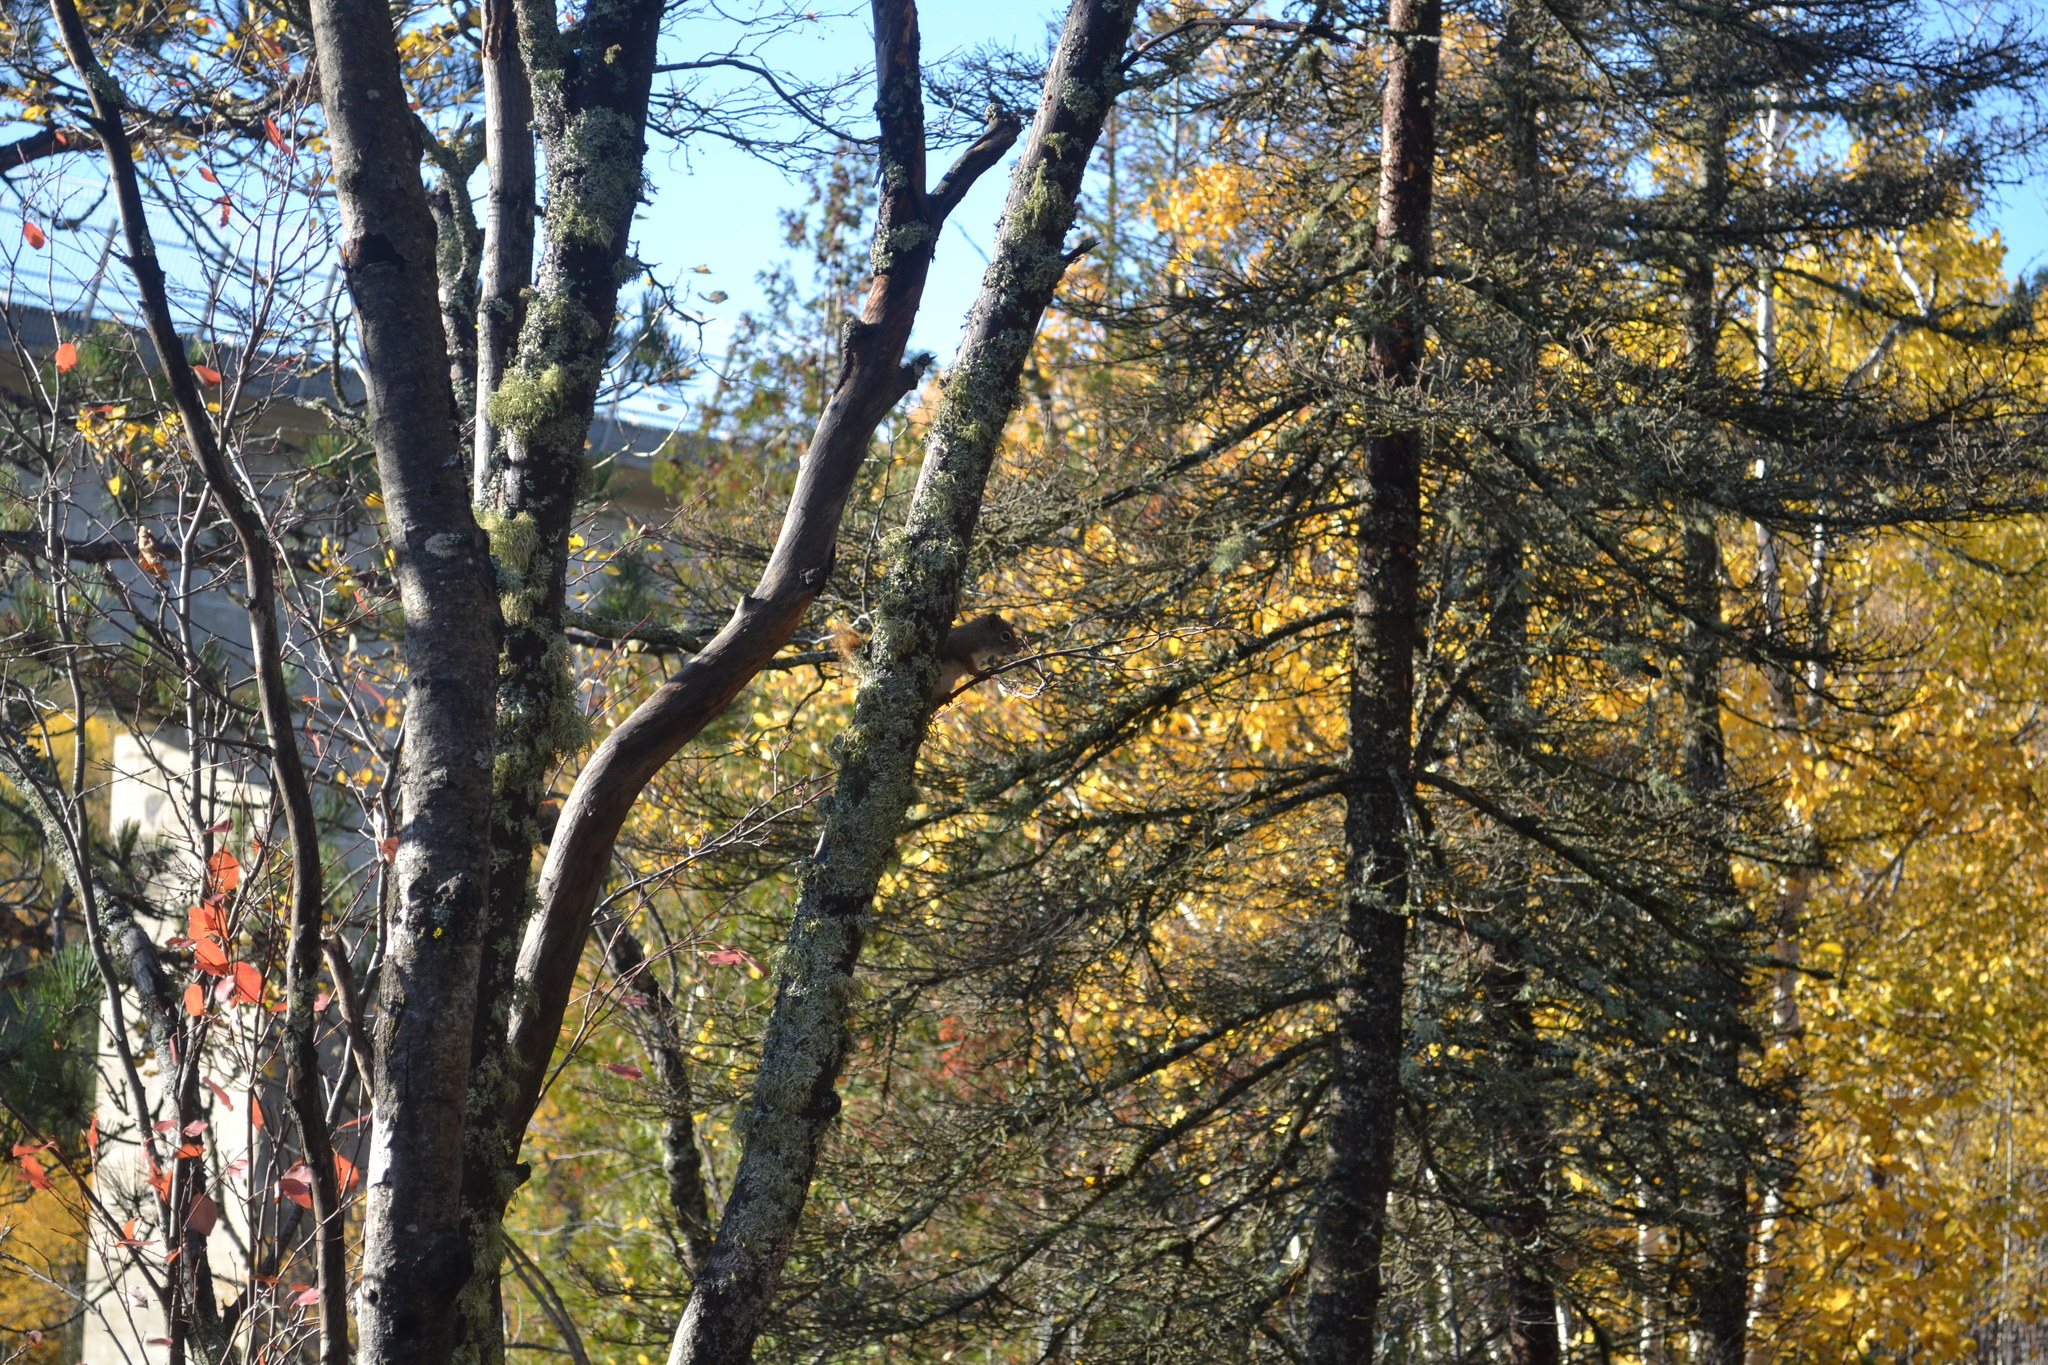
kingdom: Animalia
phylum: Chordata
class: Mammalia
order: Rodentia
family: Sciuridae
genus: Tamiasciurus
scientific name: Tamiasciurus hudsonicus
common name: Red squirrel
